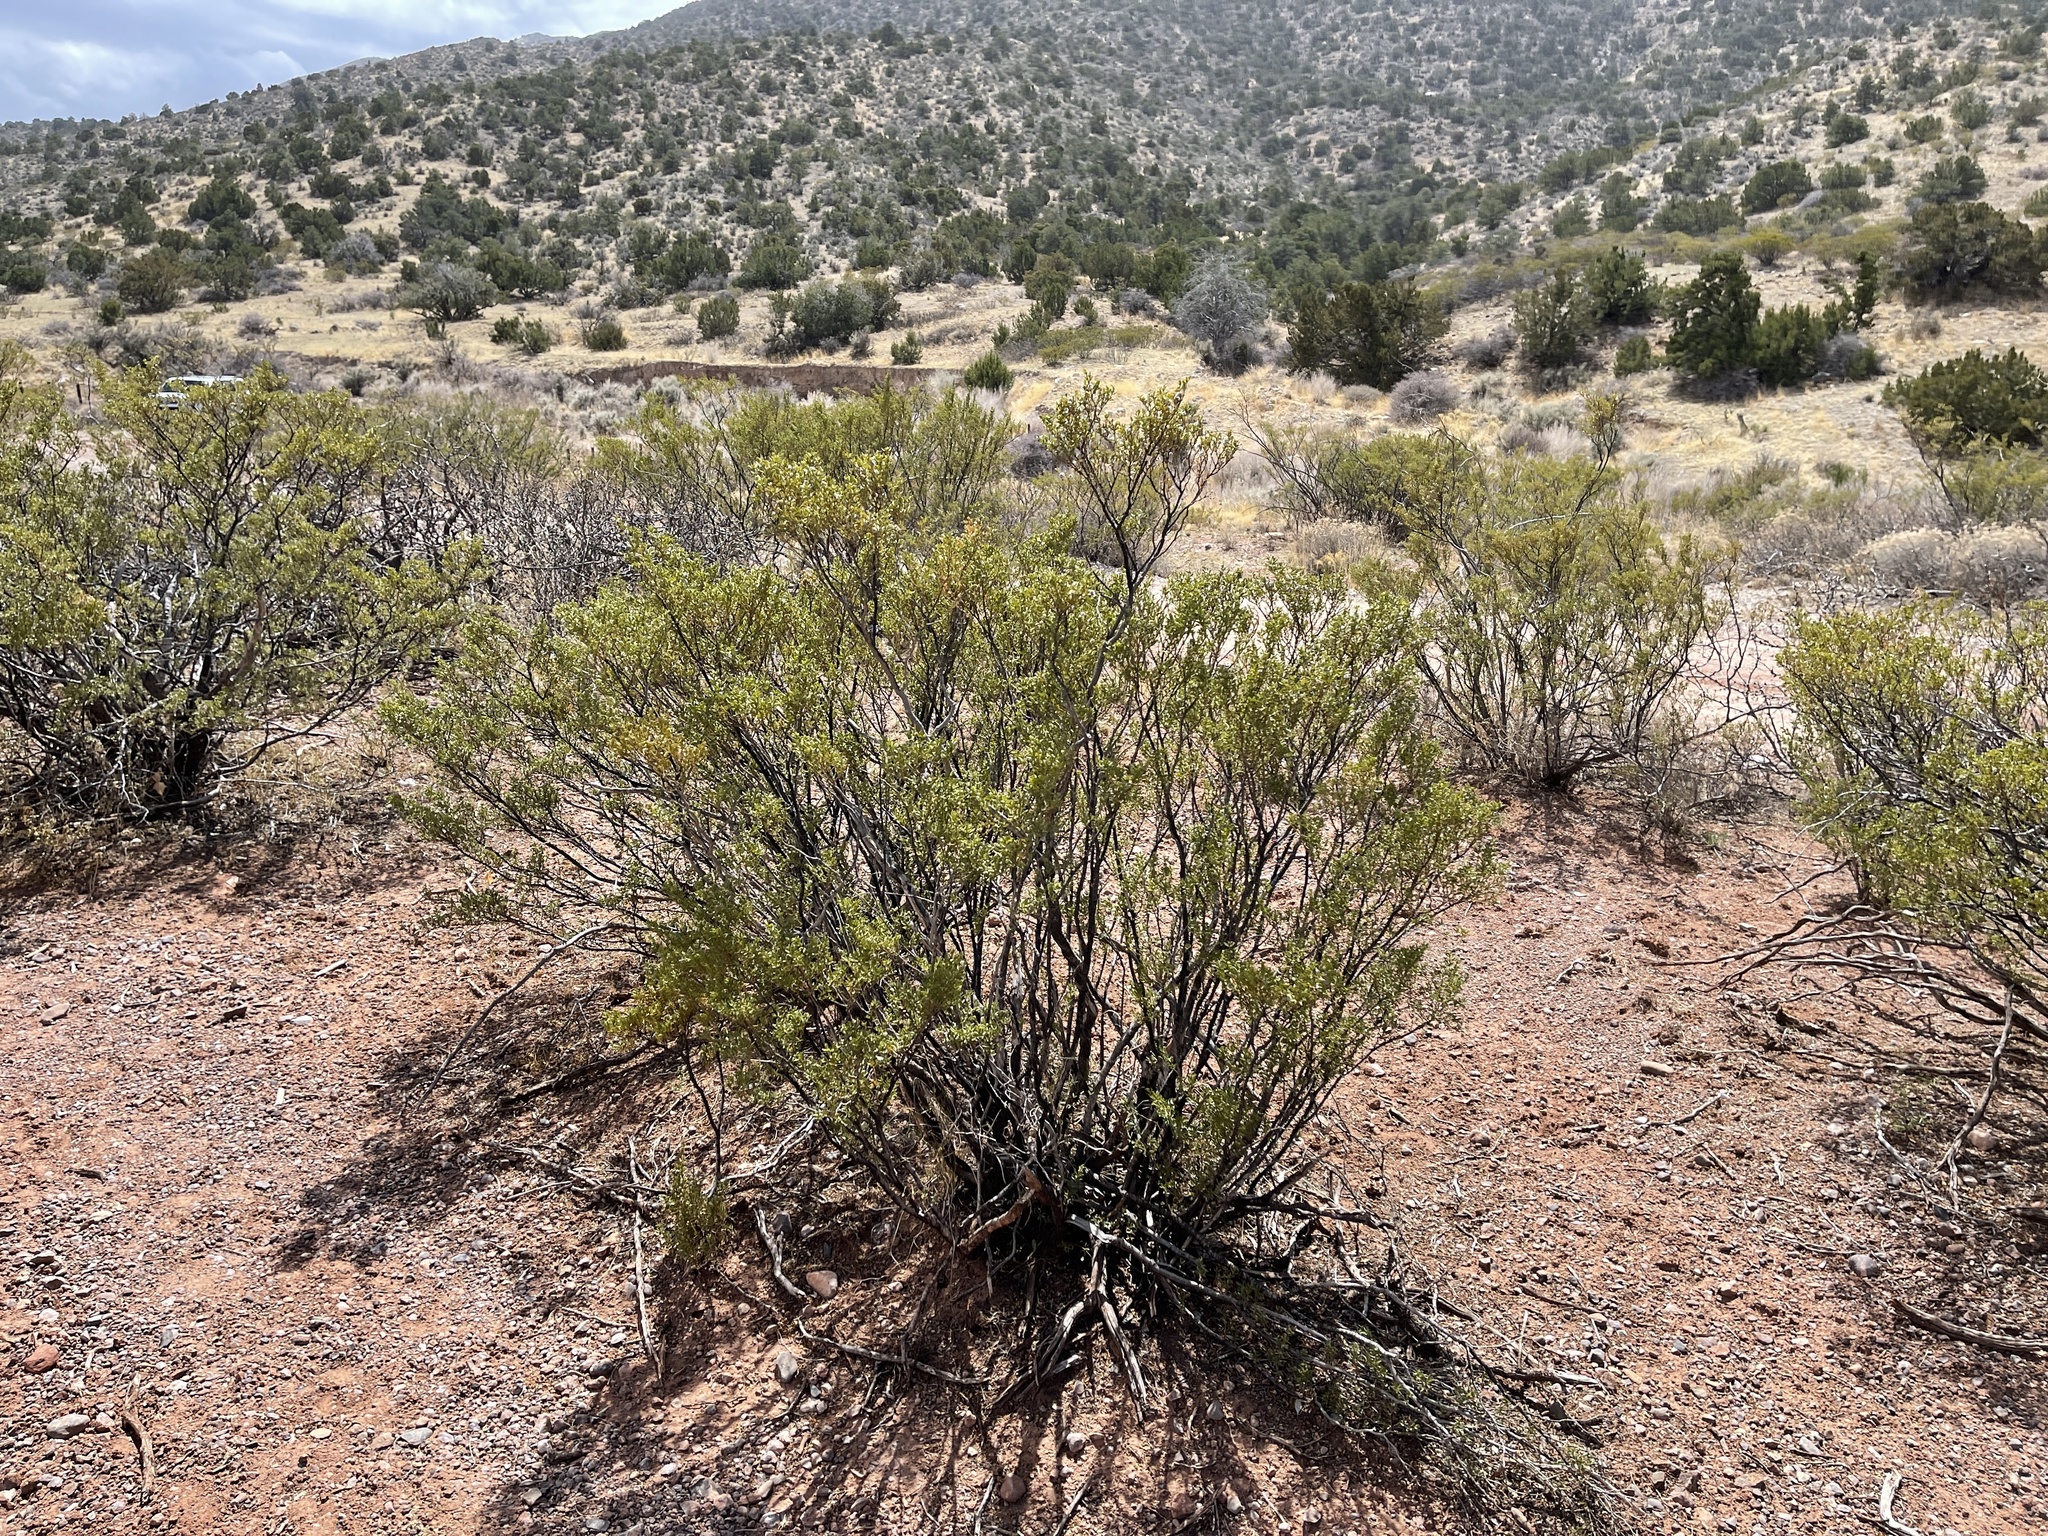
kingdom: Plantae
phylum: Tracheophyta
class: Magnoliopsida
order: Zygophyllales
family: Zygophyllaceae
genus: Larrea
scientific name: Larrea tridentata
